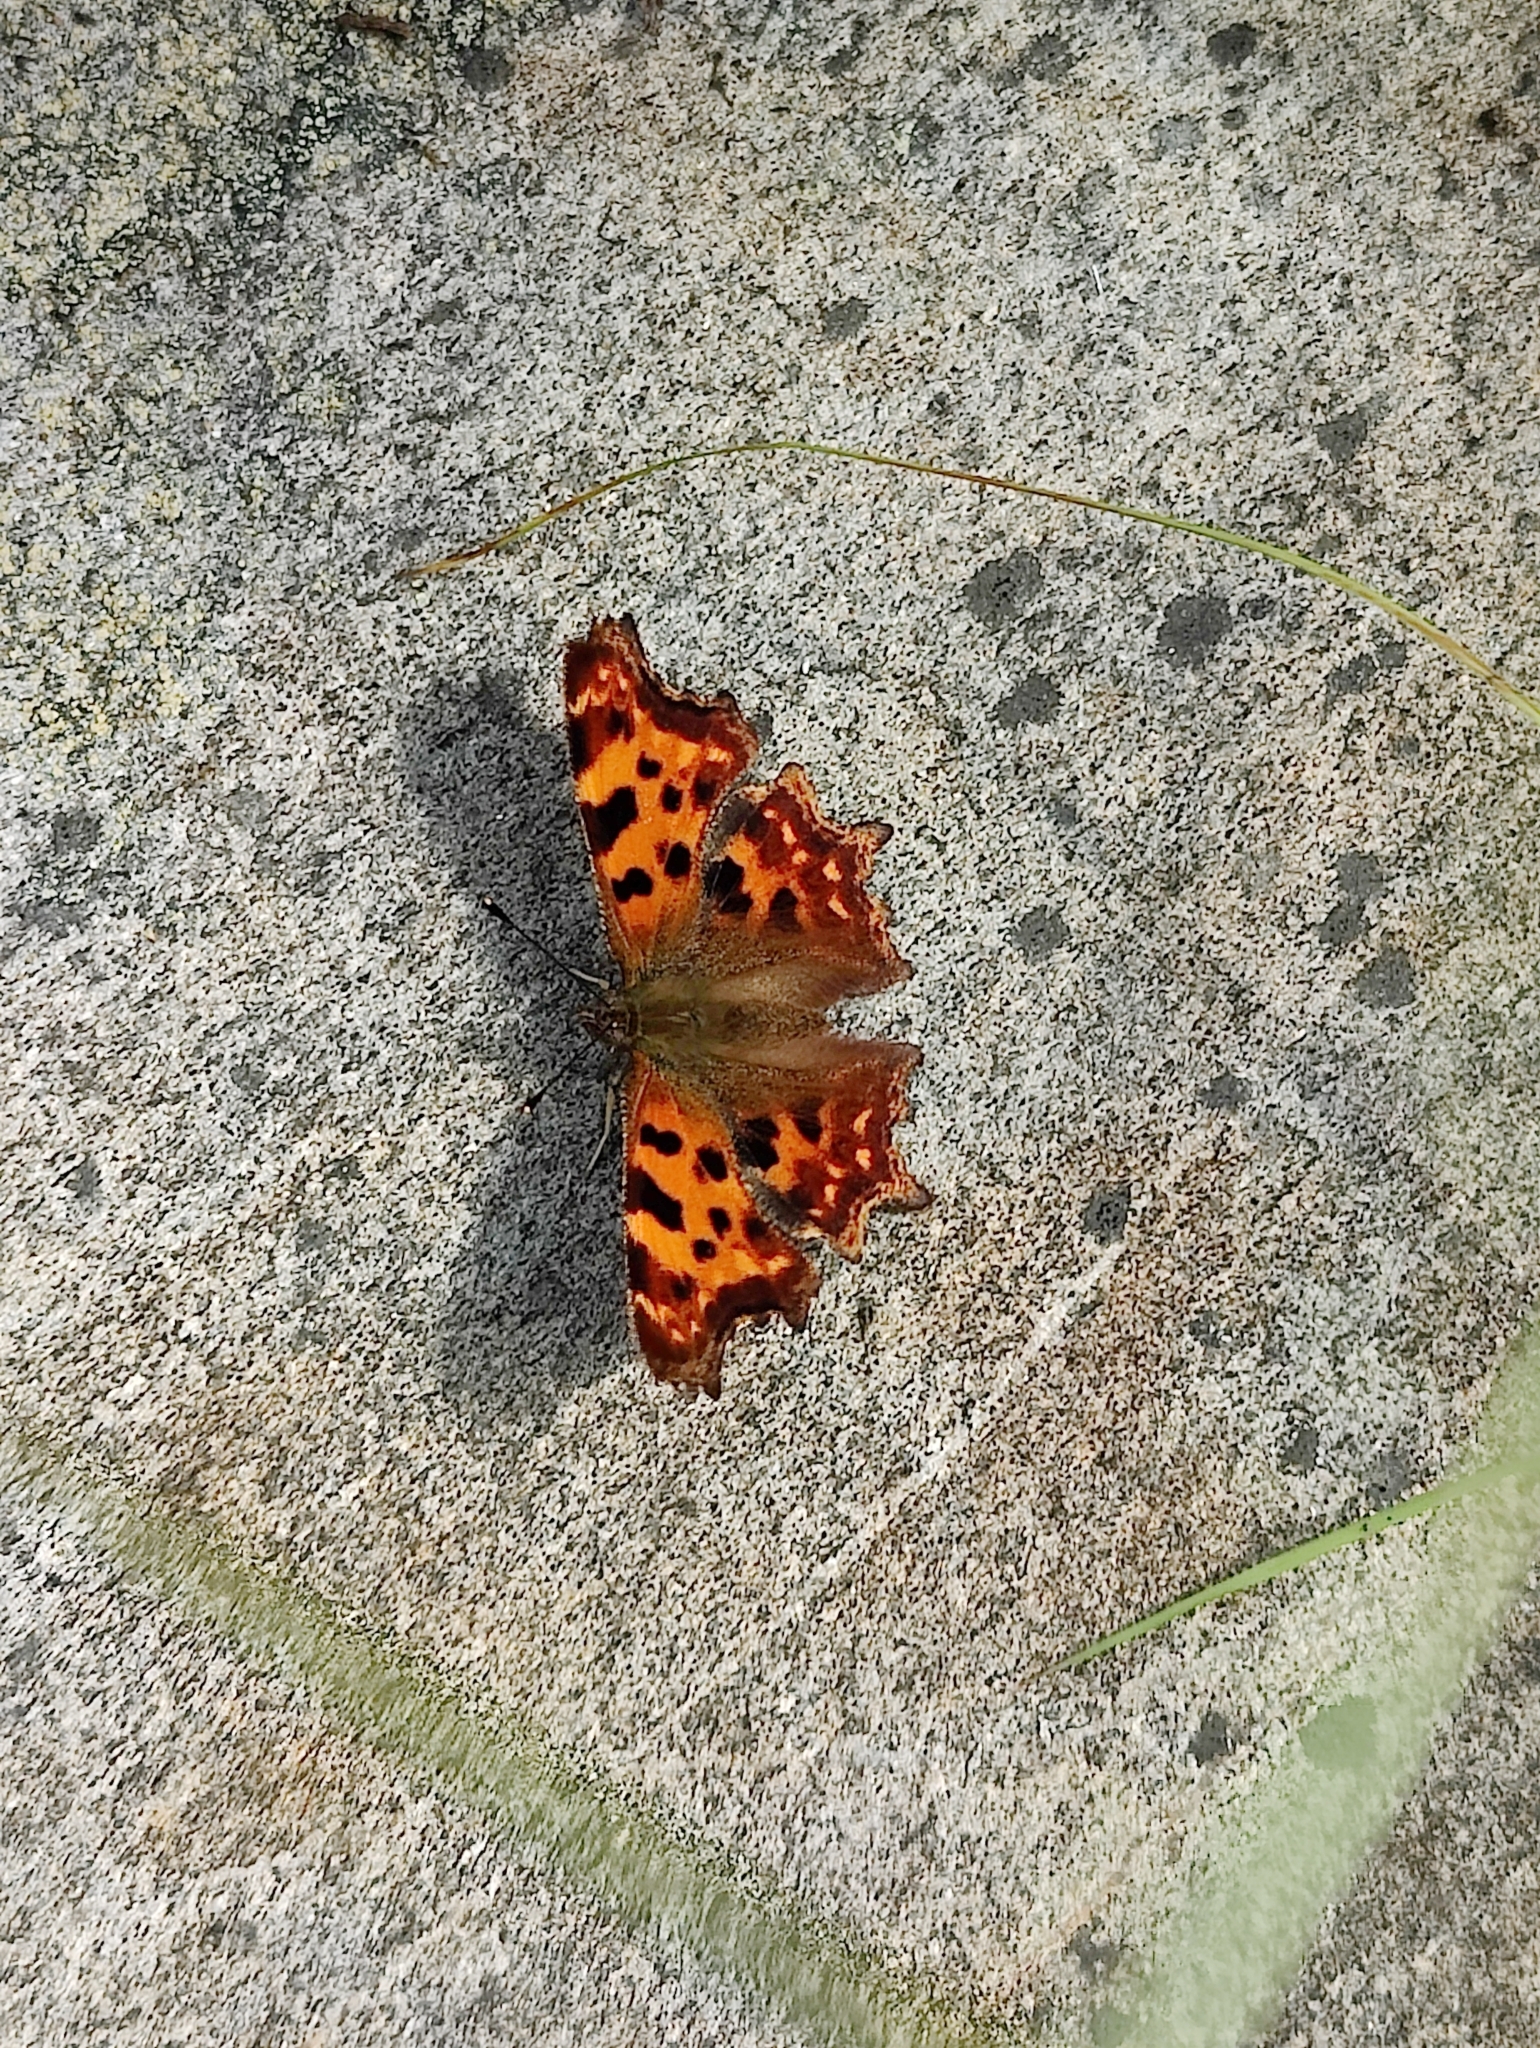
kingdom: Animalia
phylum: Arthropoda
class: Insecta
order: Lepidoptera
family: Nymphalidae
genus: Polygonia
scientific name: Polygonia c-album
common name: Comma
